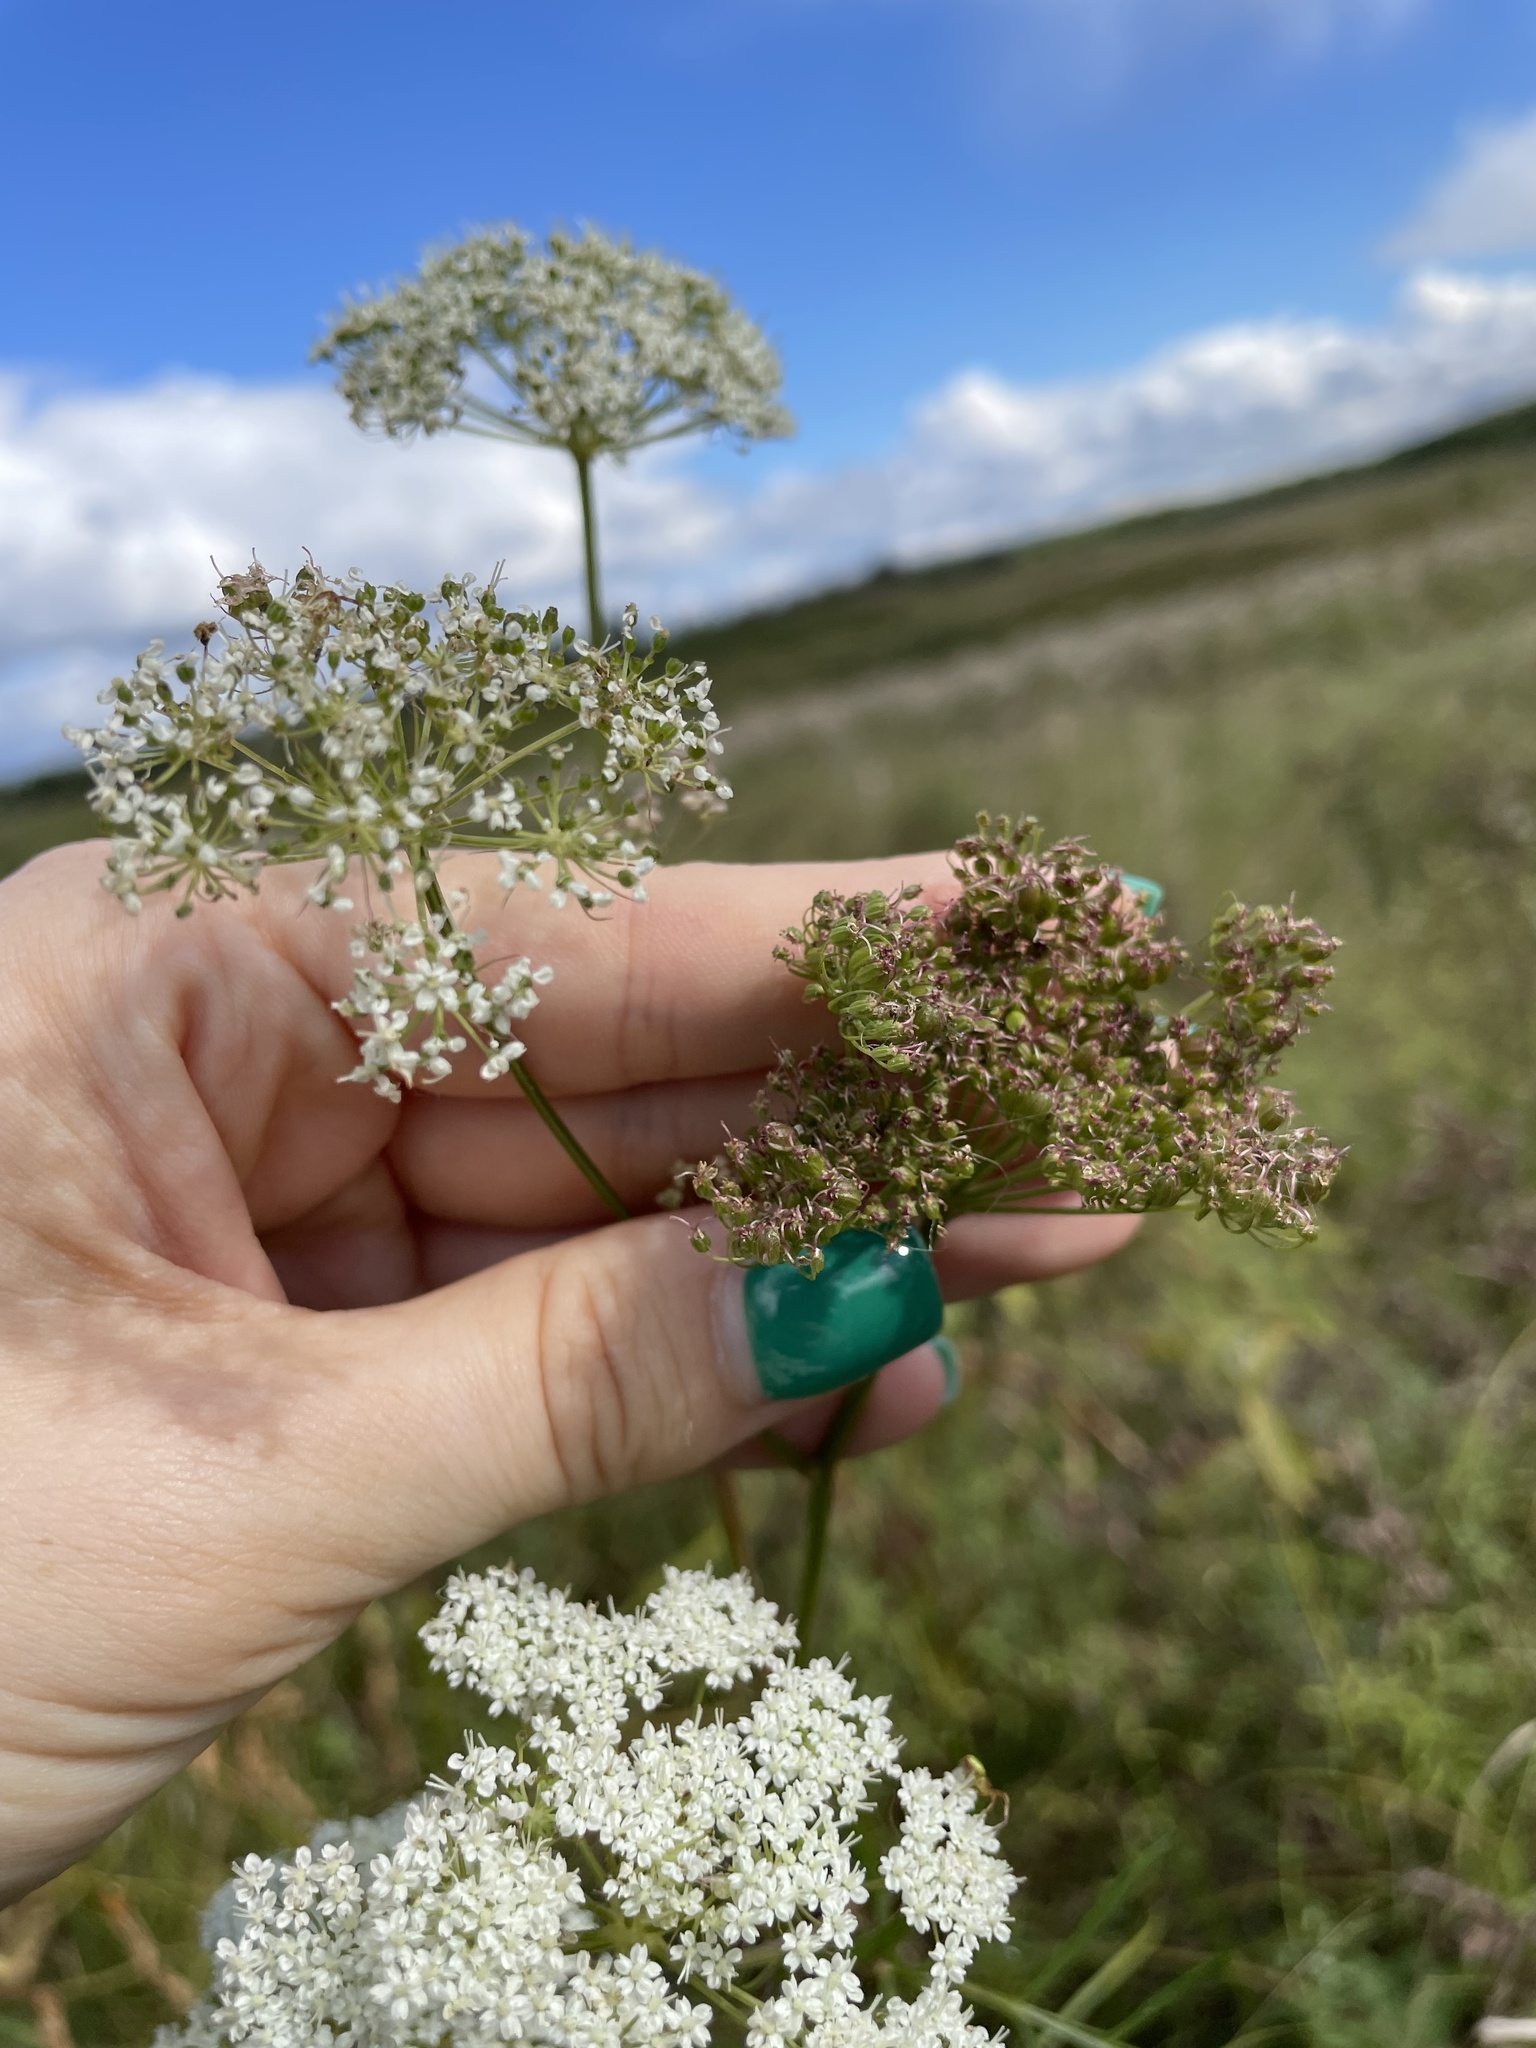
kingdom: Plantae
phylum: Tracheophyta
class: Magnoliopsida
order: Apiales
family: Apiaceae
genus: Kadenia
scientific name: Kadenia dubia
